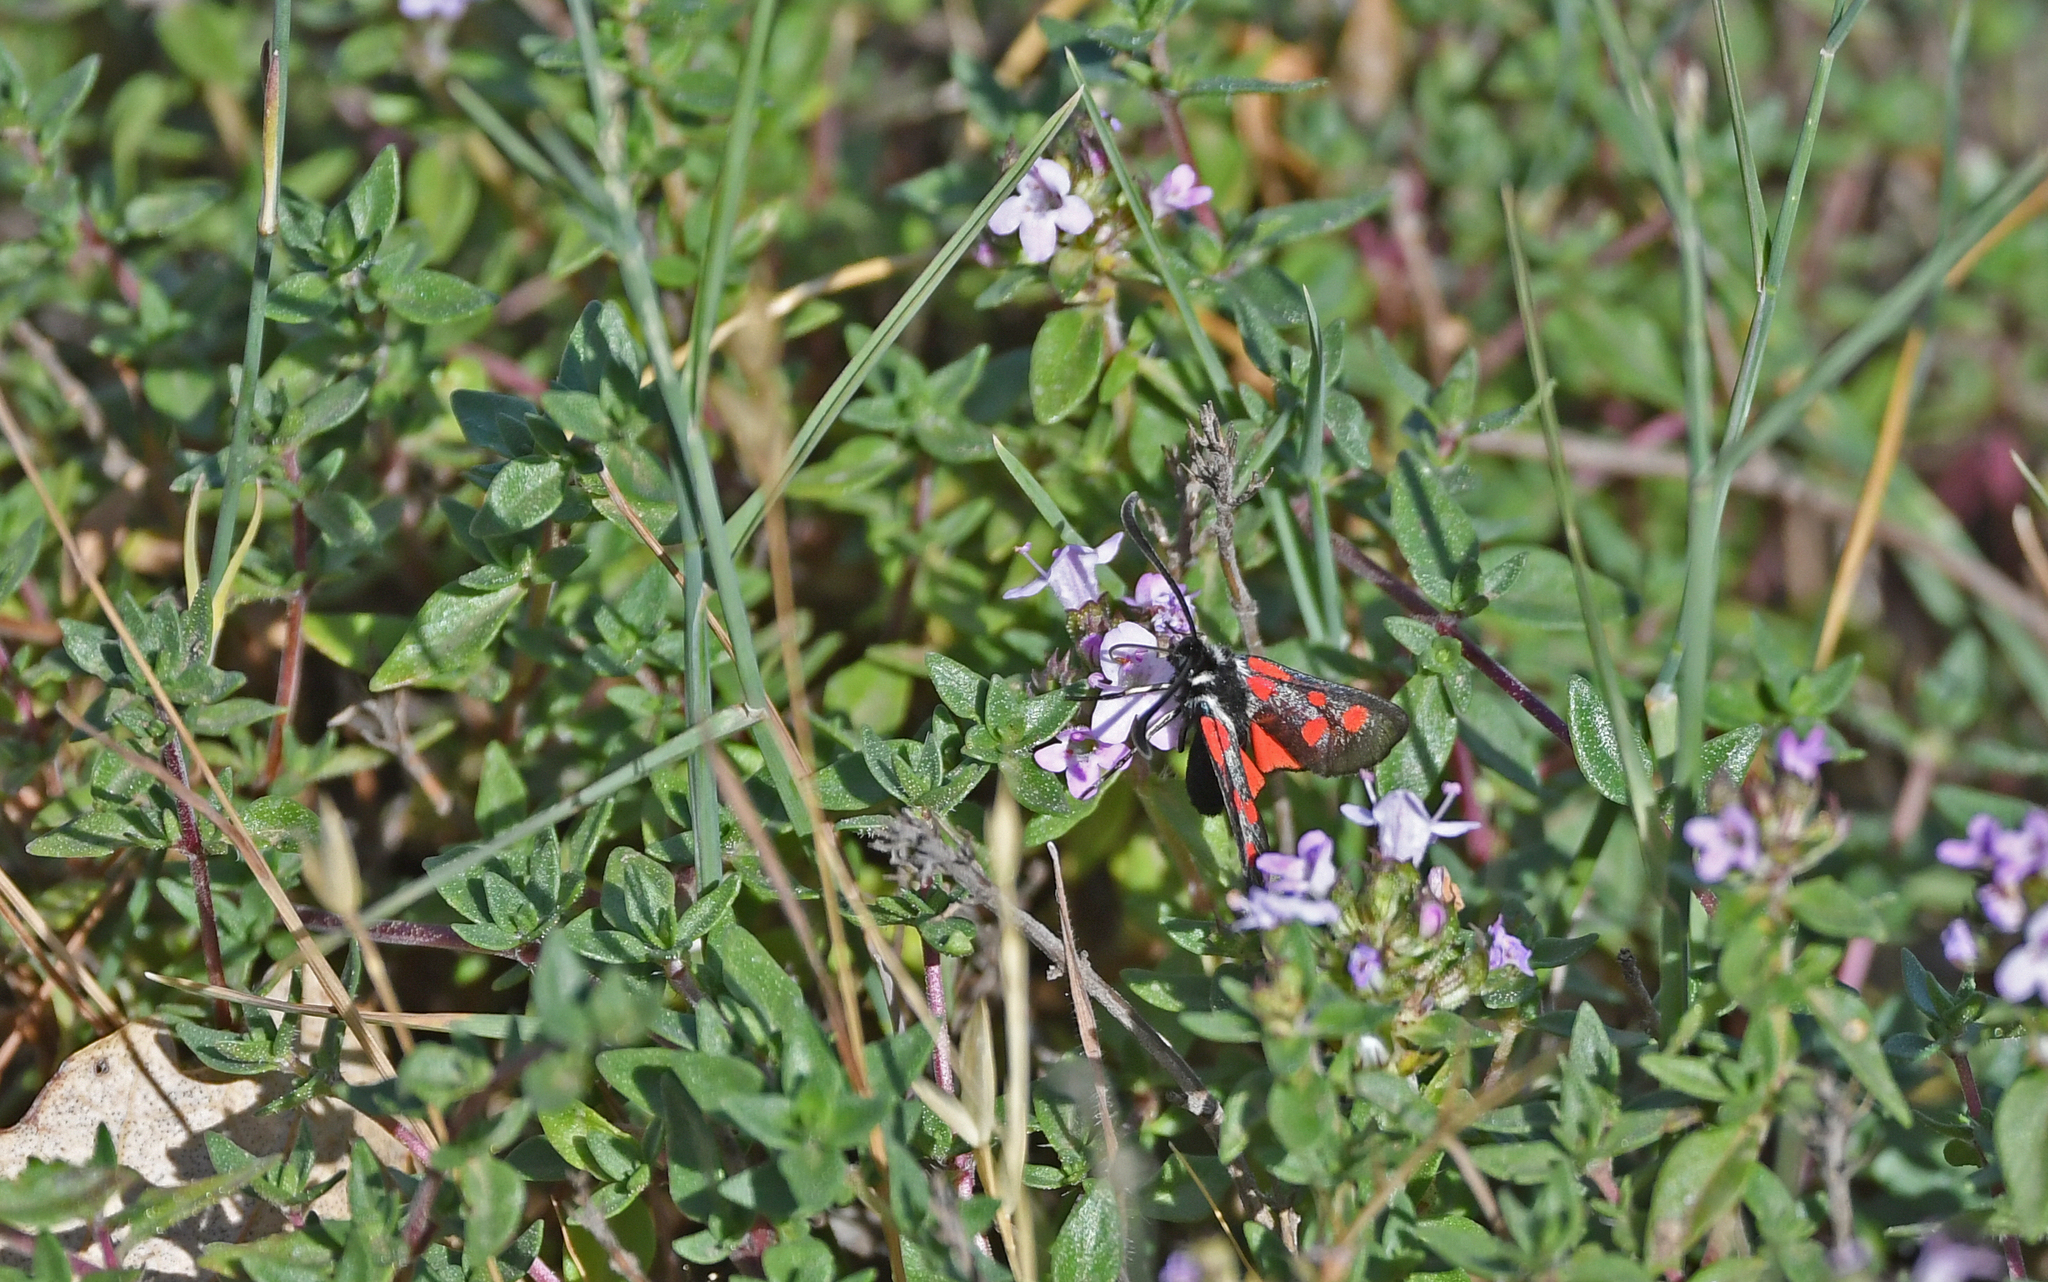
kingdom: Animalia
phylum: Arthropoda
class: Insecta
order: Lepidoptera
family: Zygaenidae
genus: Zygaena
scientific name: Zygaena corsica
